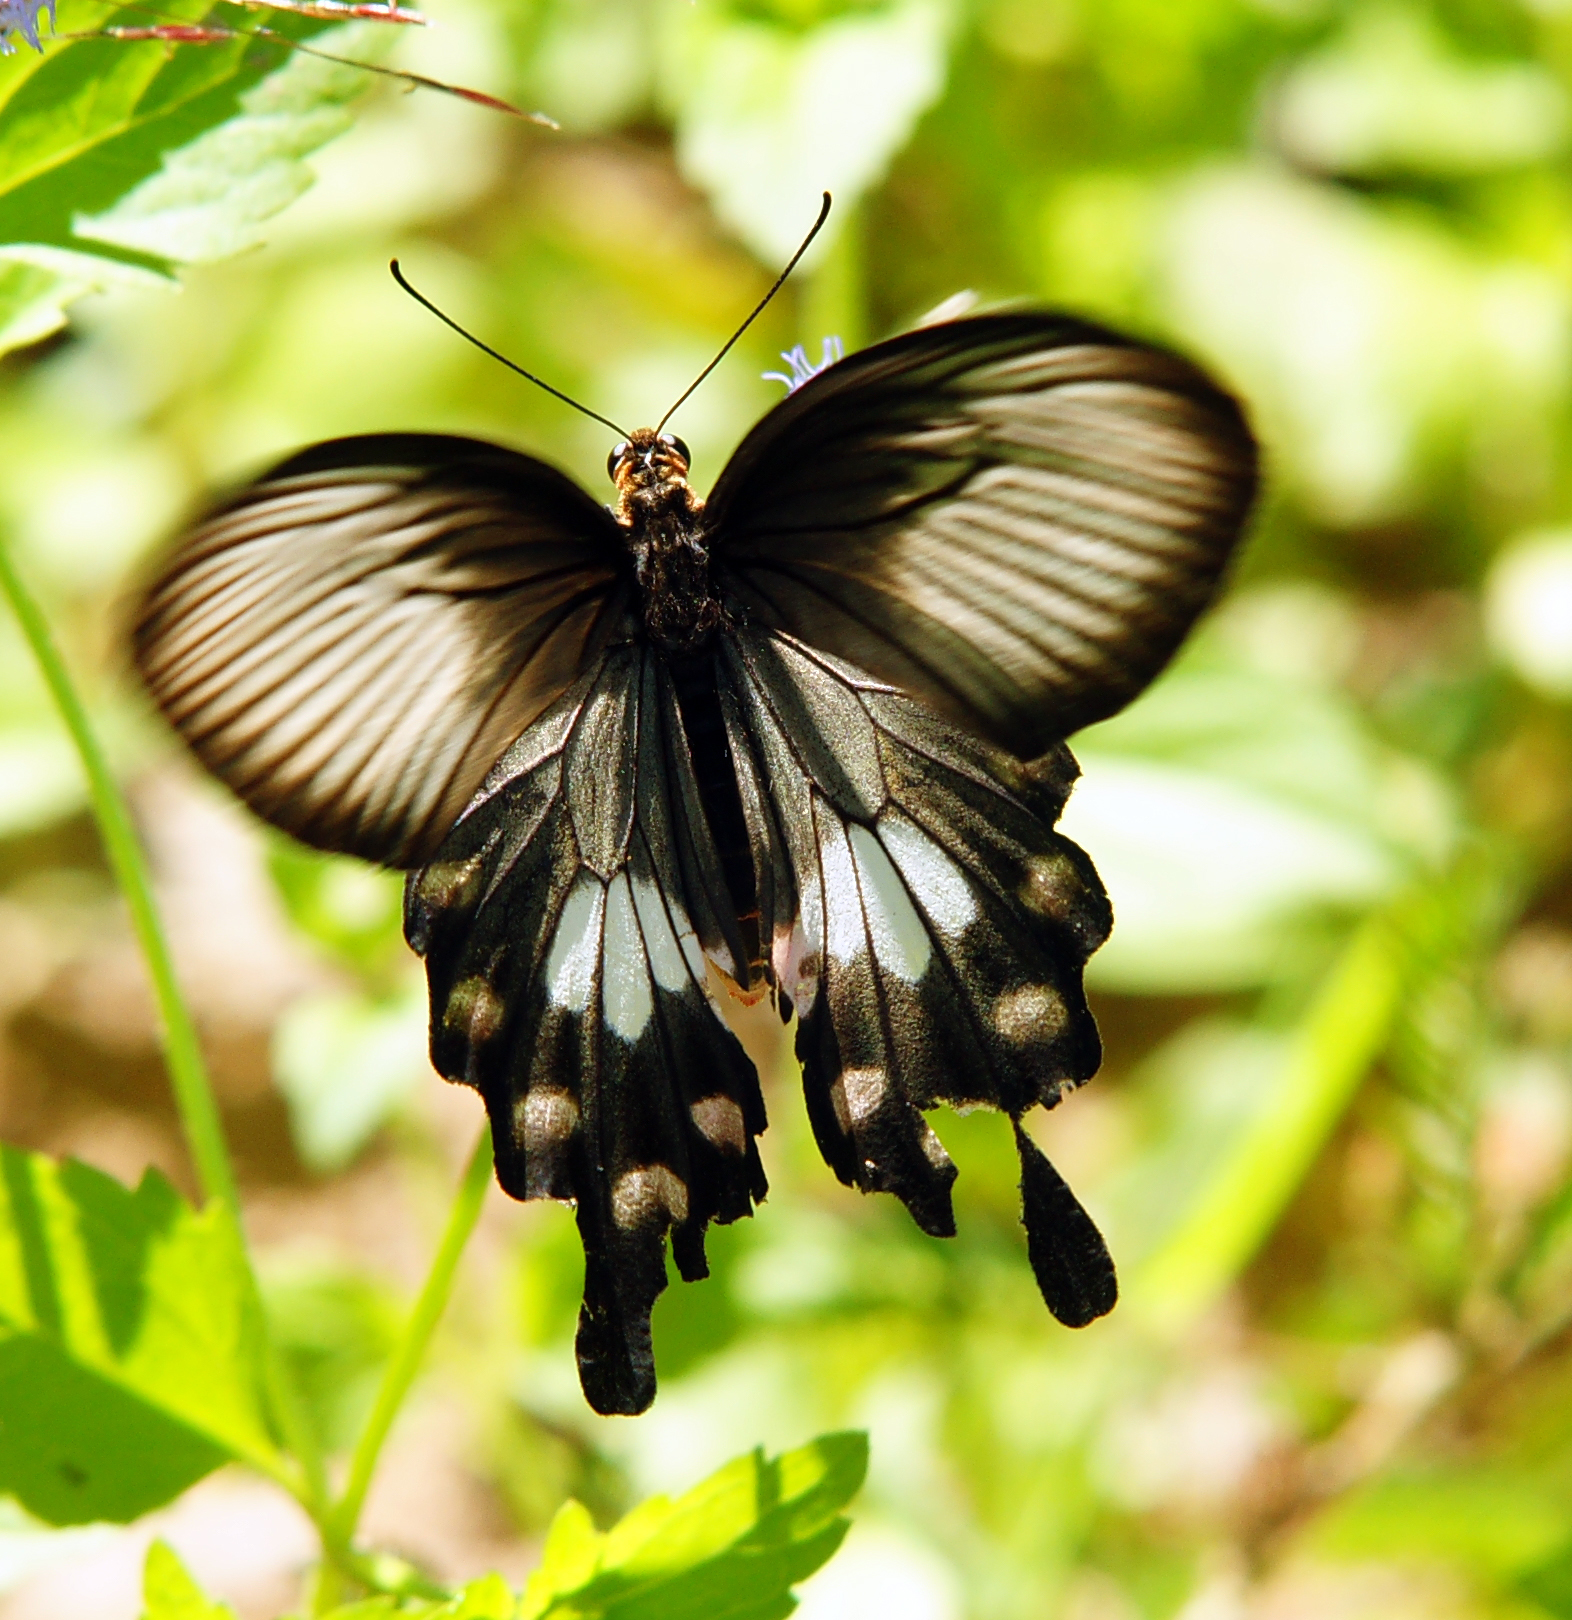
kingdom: Animalia
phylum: Arthropoda
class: Insecta
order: Lepidoptera
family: Papilionidae
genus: Pachliopta
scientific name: Pachliopta aristolochiae
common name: Common rose
